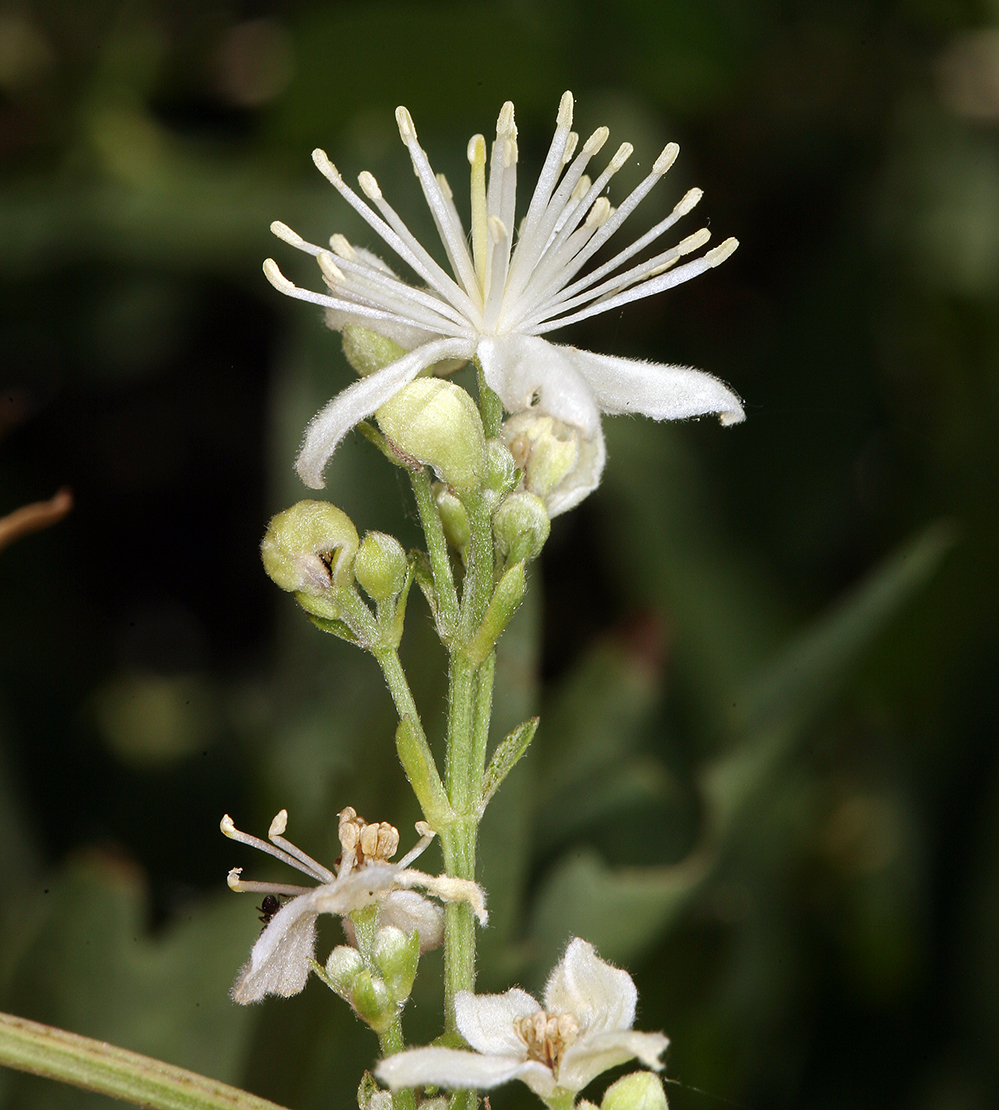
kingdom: Plantae
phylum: Tracheophyta
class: Magnoliopsida
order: Ranunculales
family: Ranunculaceae
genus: Clematis
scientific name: Clematis ligusticifolia
